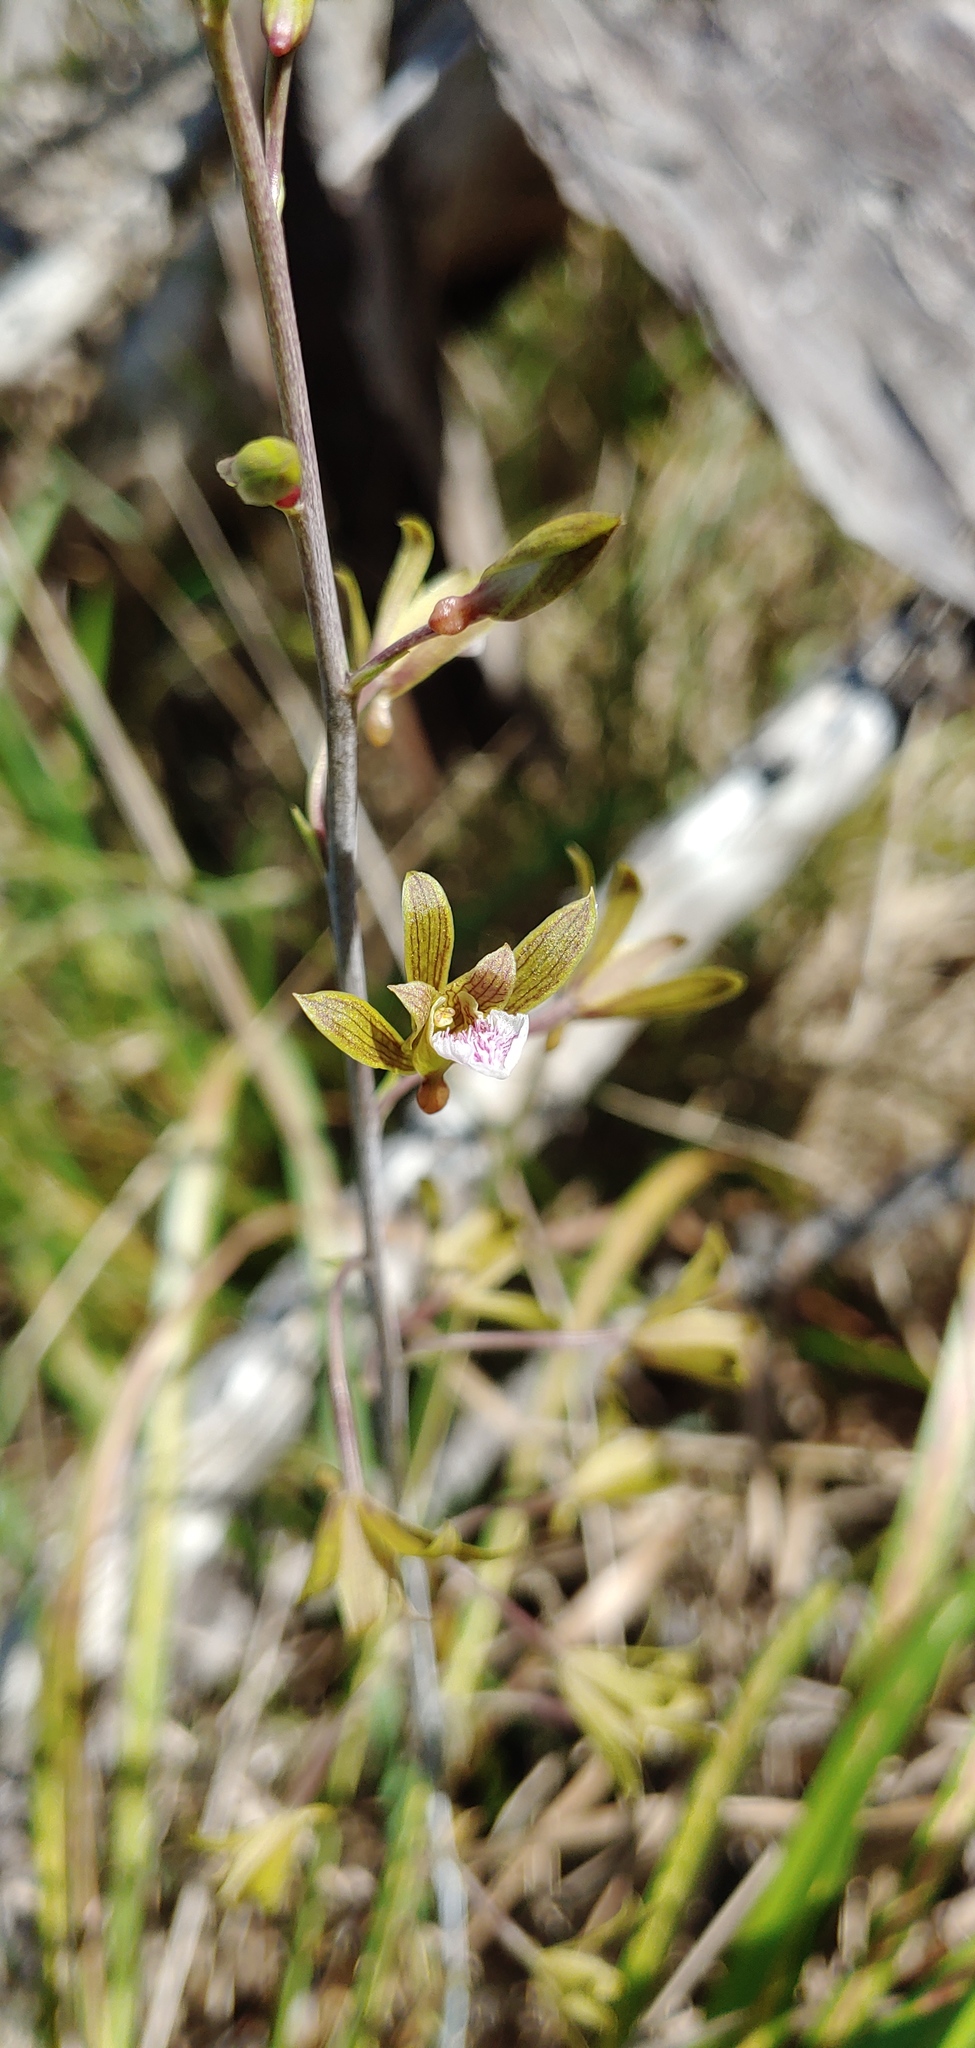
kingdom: Plantae
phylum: Tracheophyta
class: Liliopsida
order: Asparagales
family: Orchidaceae
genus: Eulophia
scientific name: Eulophia graminea
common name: Orchid
